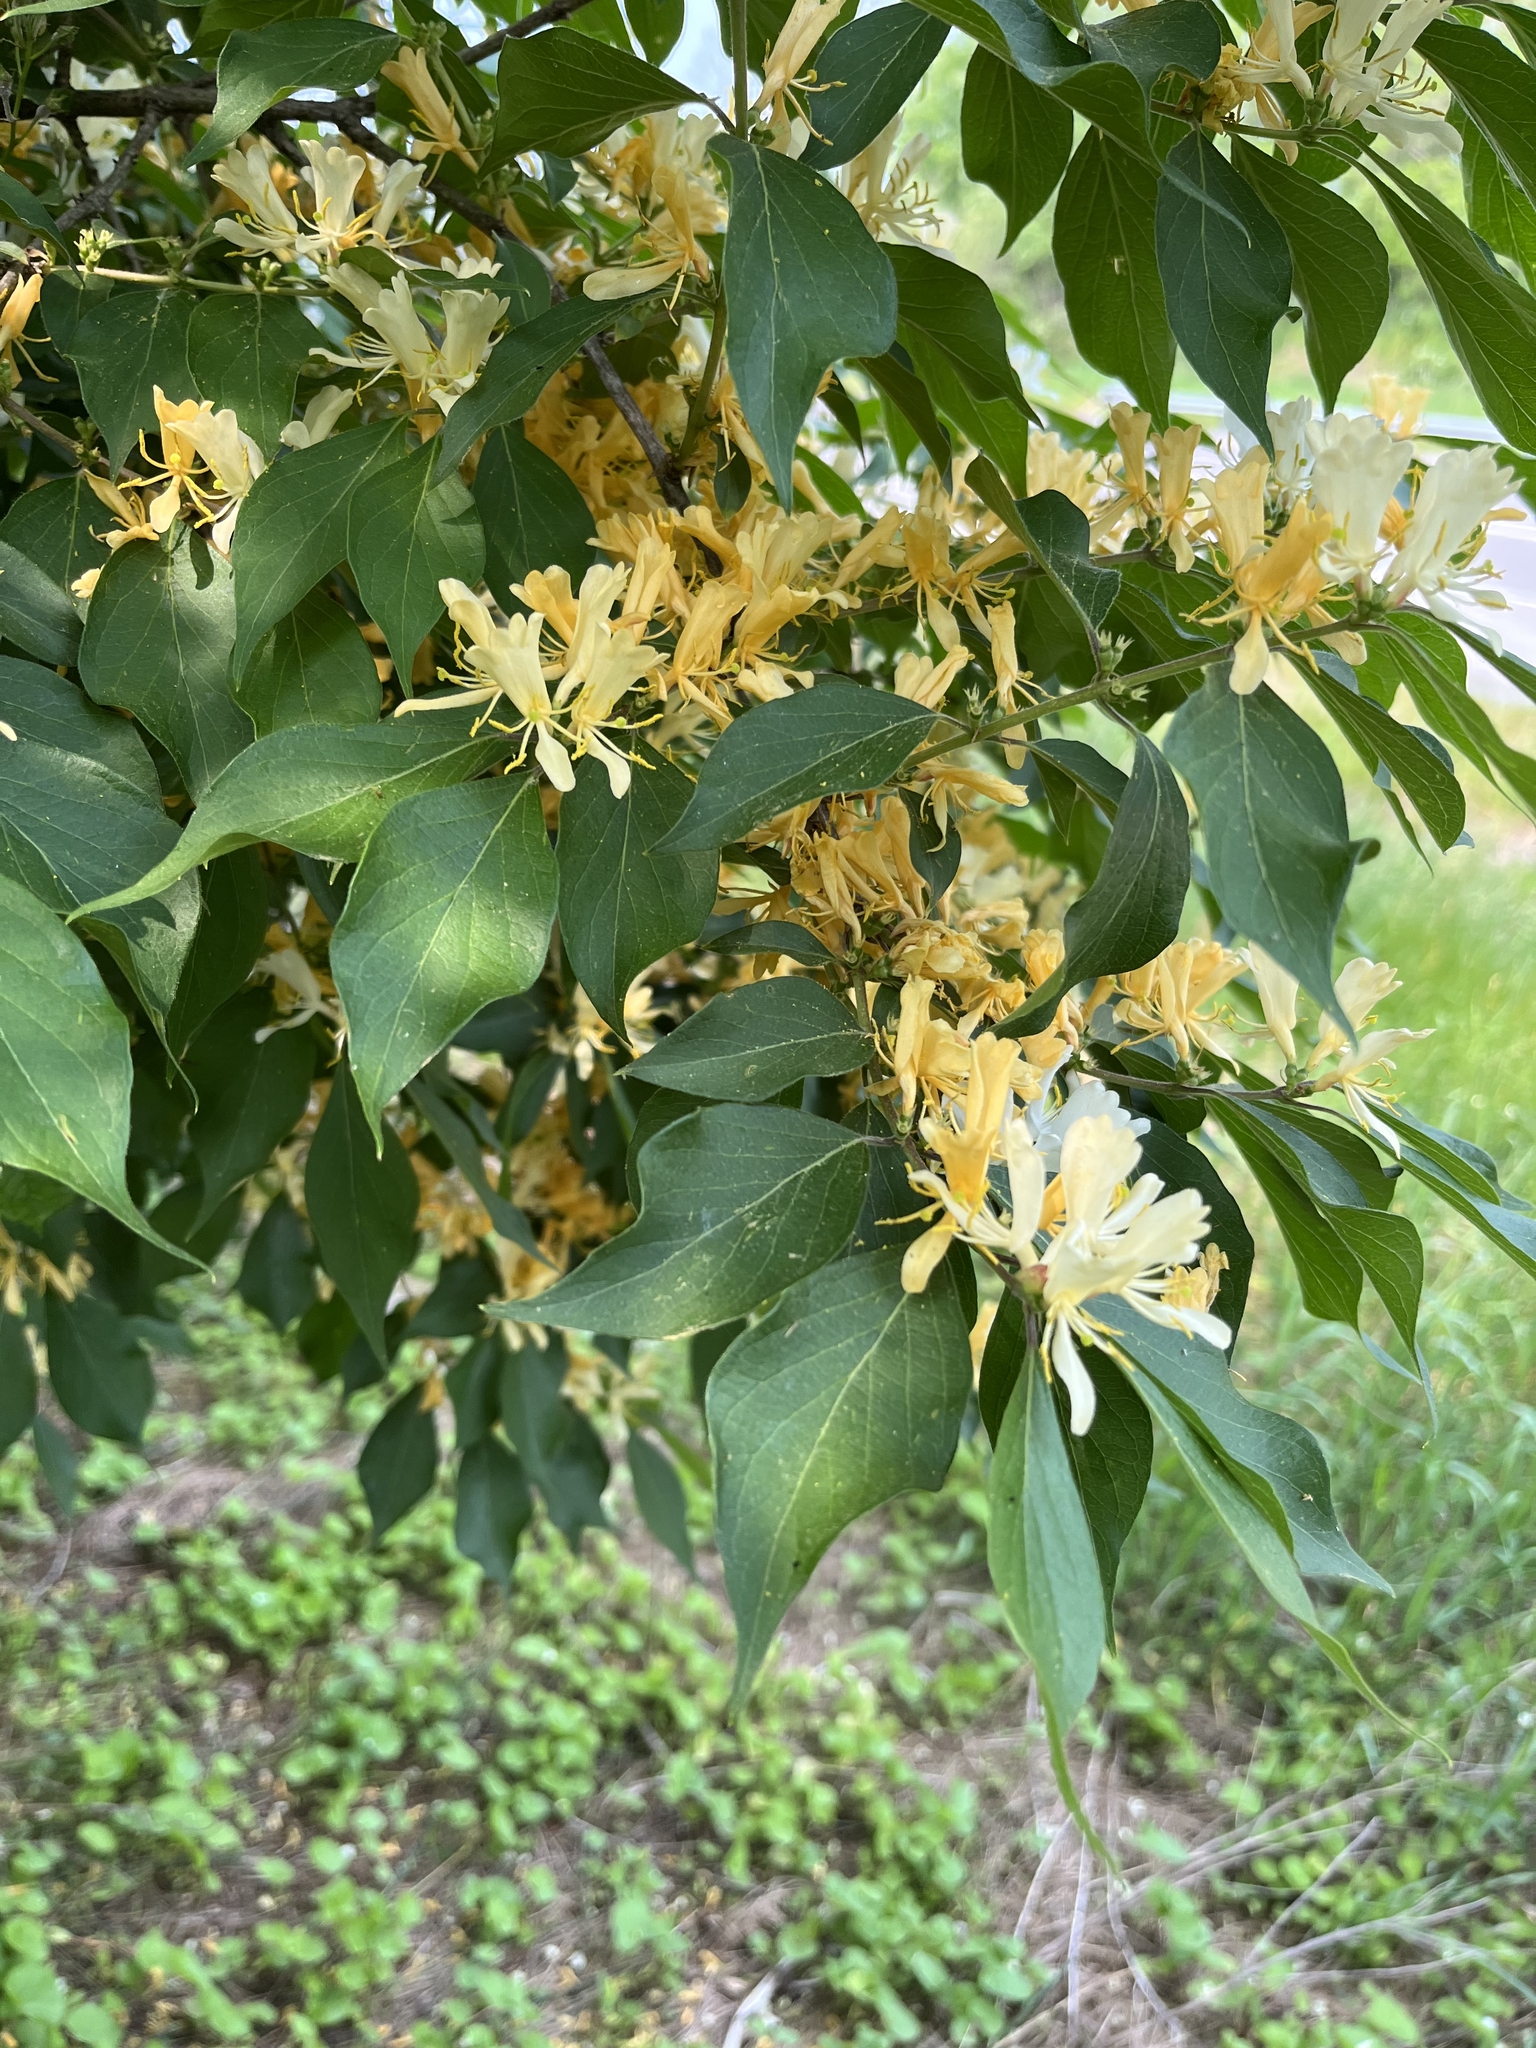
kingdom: Plantae
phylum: Tracheophyta
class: Magnoliopsida
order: Dipsacales
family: Caprifoliaceae
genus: Lonicera
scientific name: Lonicera maackii
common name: Amur honeysuckle
